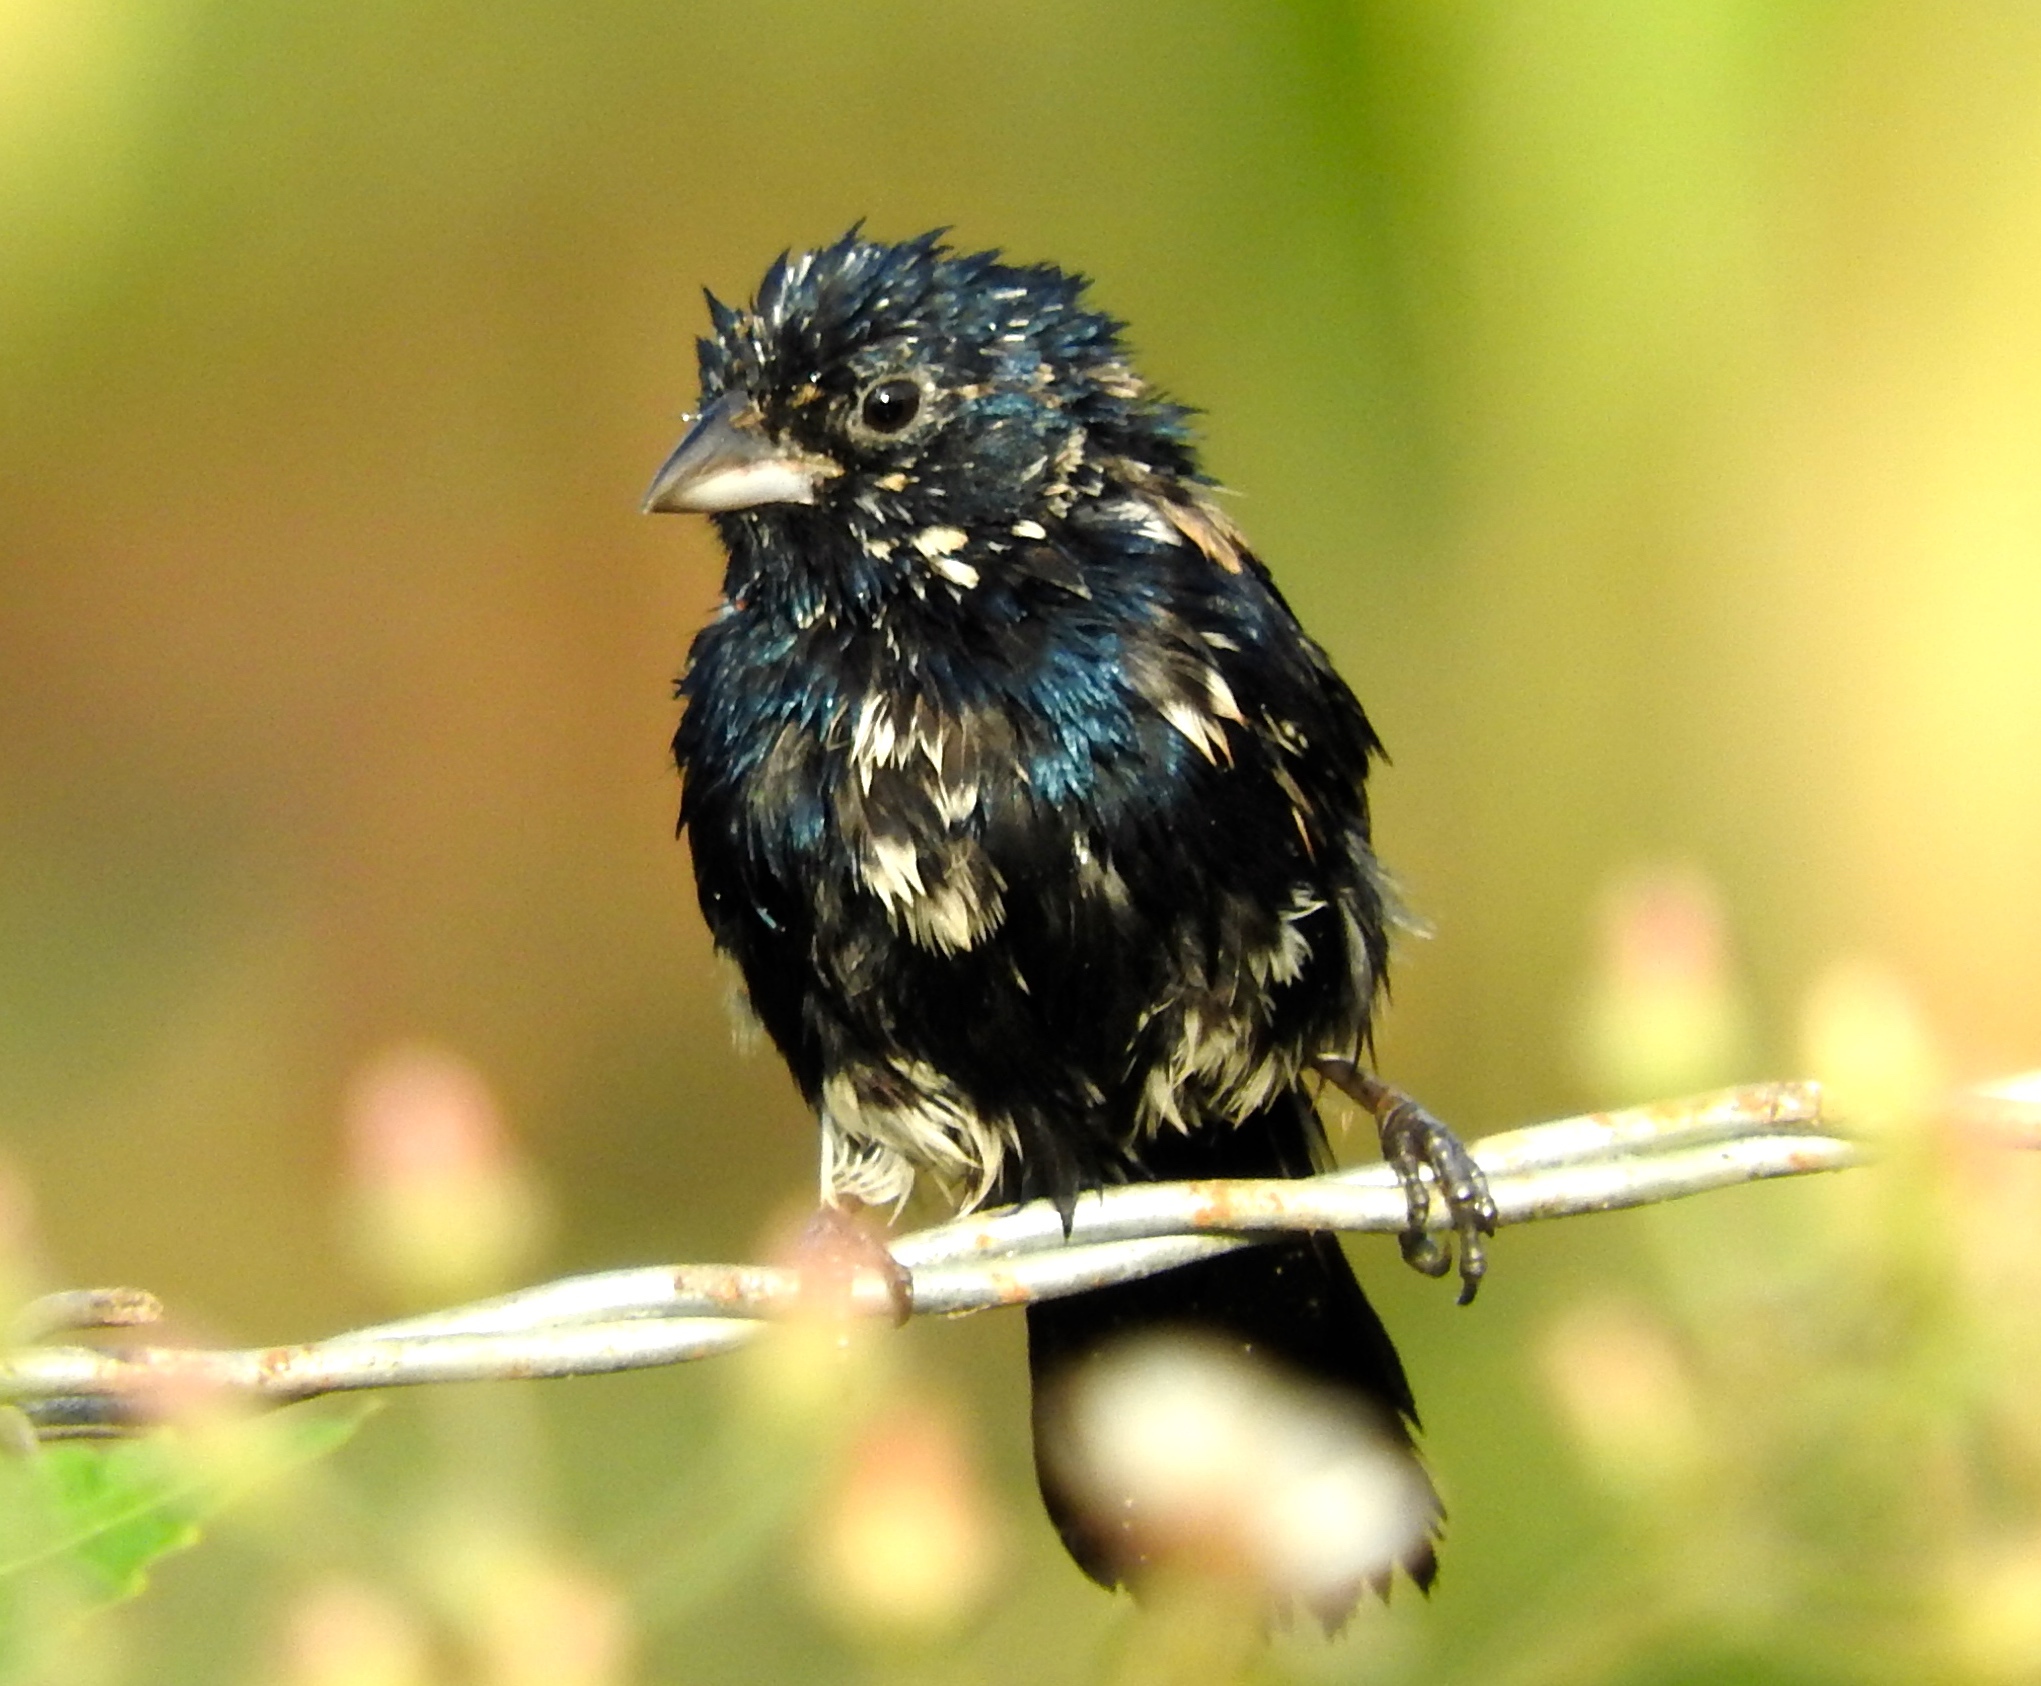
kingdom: Animalia
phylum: Chordata
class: Aves
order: Passeriformes
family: Thraupidae
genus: Volatinia
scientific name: Volatinia jacarina
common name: Blue-black grassquit
